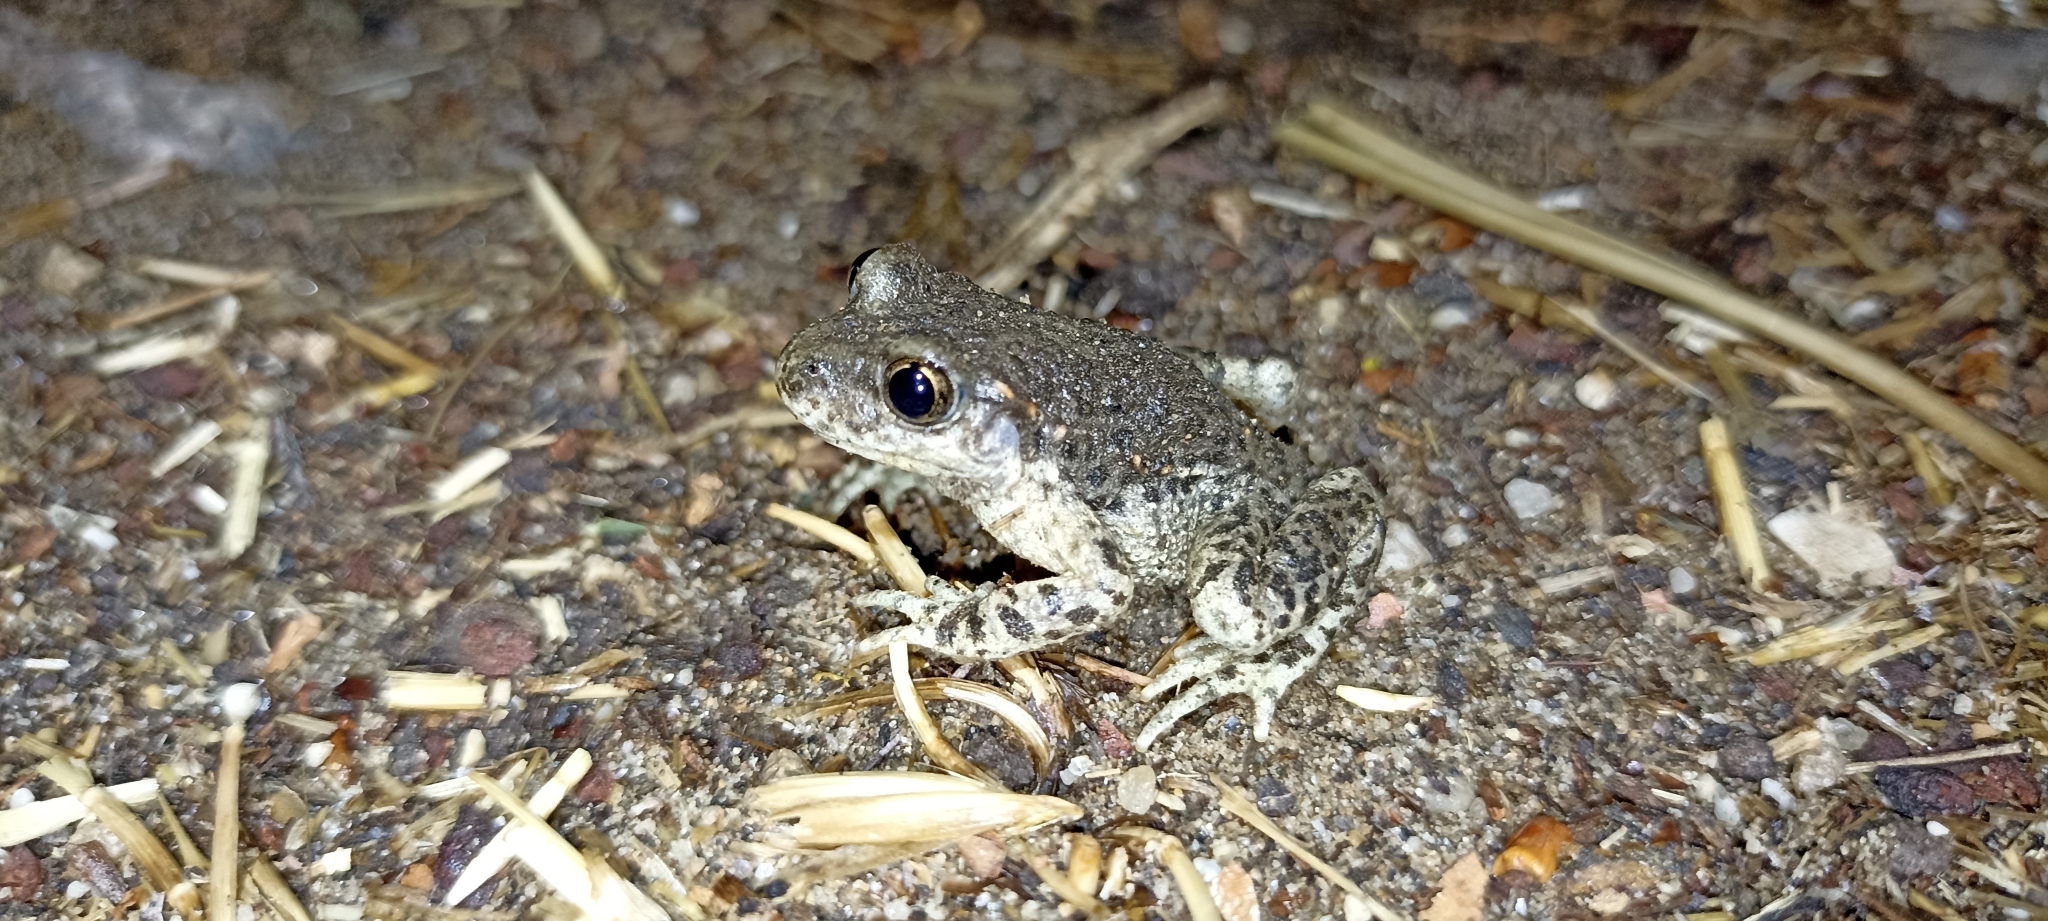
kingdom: Animalia
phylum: Chordata
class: Amphibia
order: Anura
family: Alytidae
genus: Alytes
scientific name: Alytes obstetricans
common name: Midwife toad
